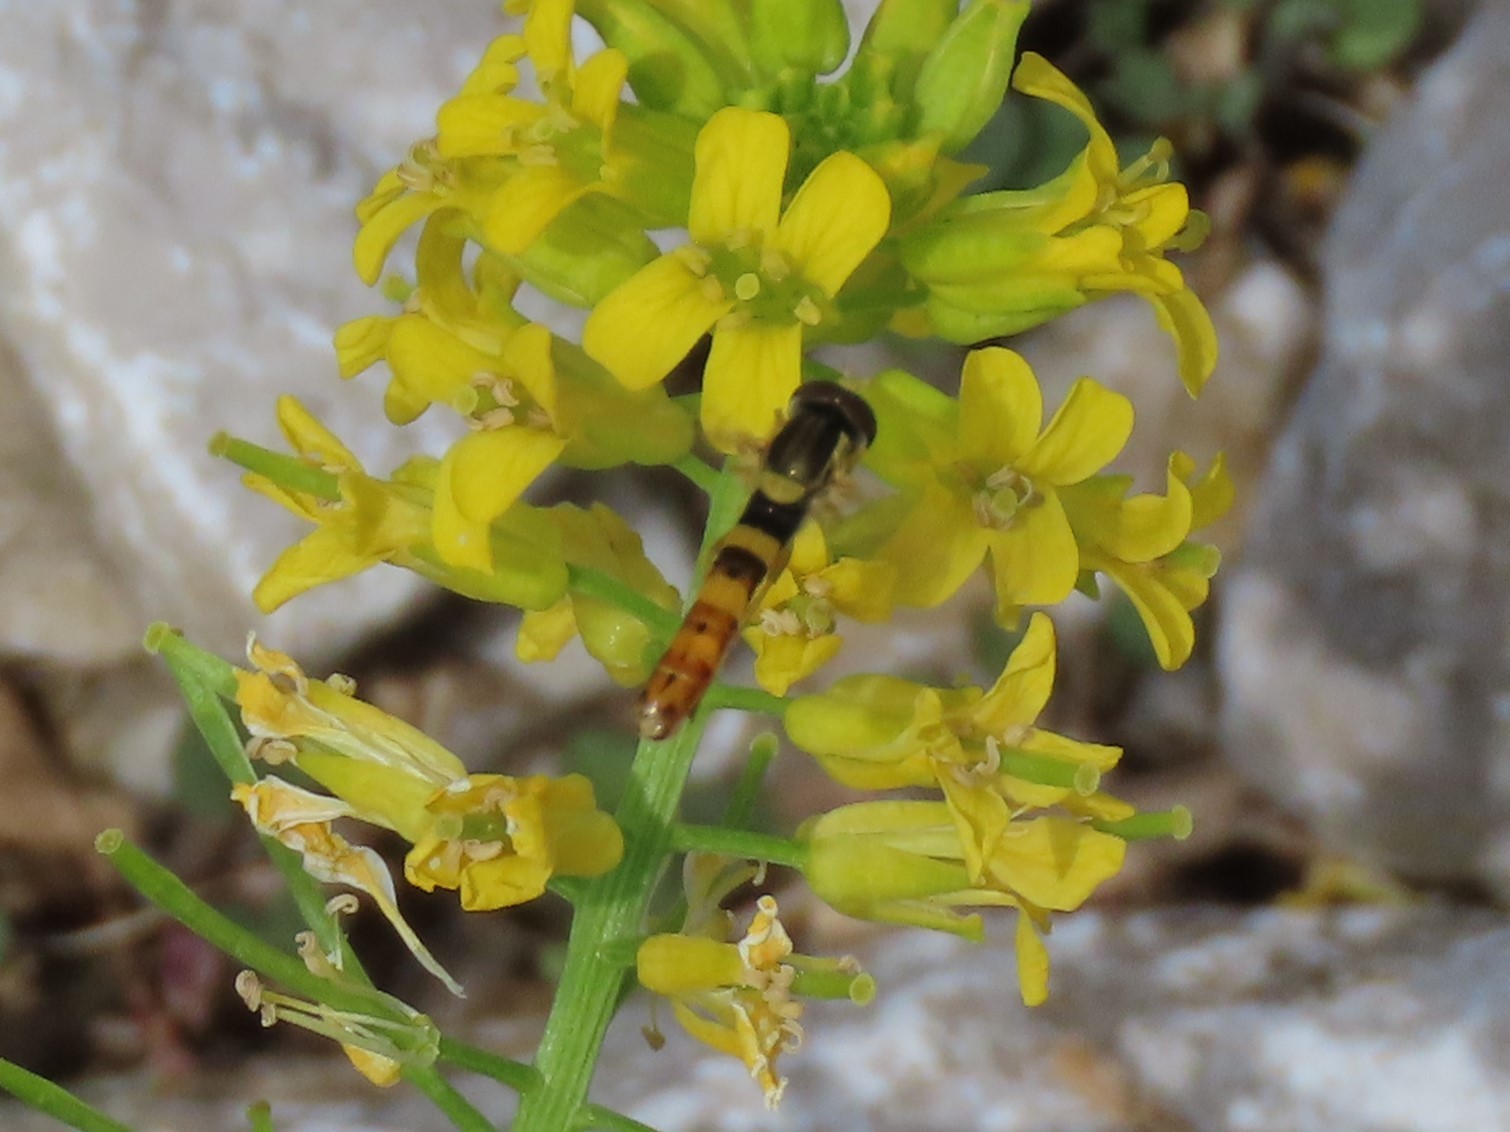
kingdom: Animalia
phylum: Arthropoda
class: Insecta
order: Diptera
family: Syrphidae
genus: Sphaerophoria
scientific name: Sphaerophoria scripta
